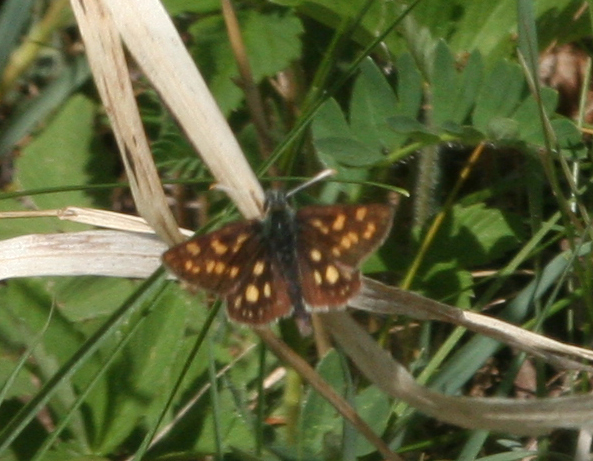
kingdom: Animalia
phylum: Arthropoda
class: Insecta
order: Lepidoptera
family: Hesperiidae
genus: Carterocephalus
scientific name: Carterocephalus palaemon
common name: Chequered skipper
